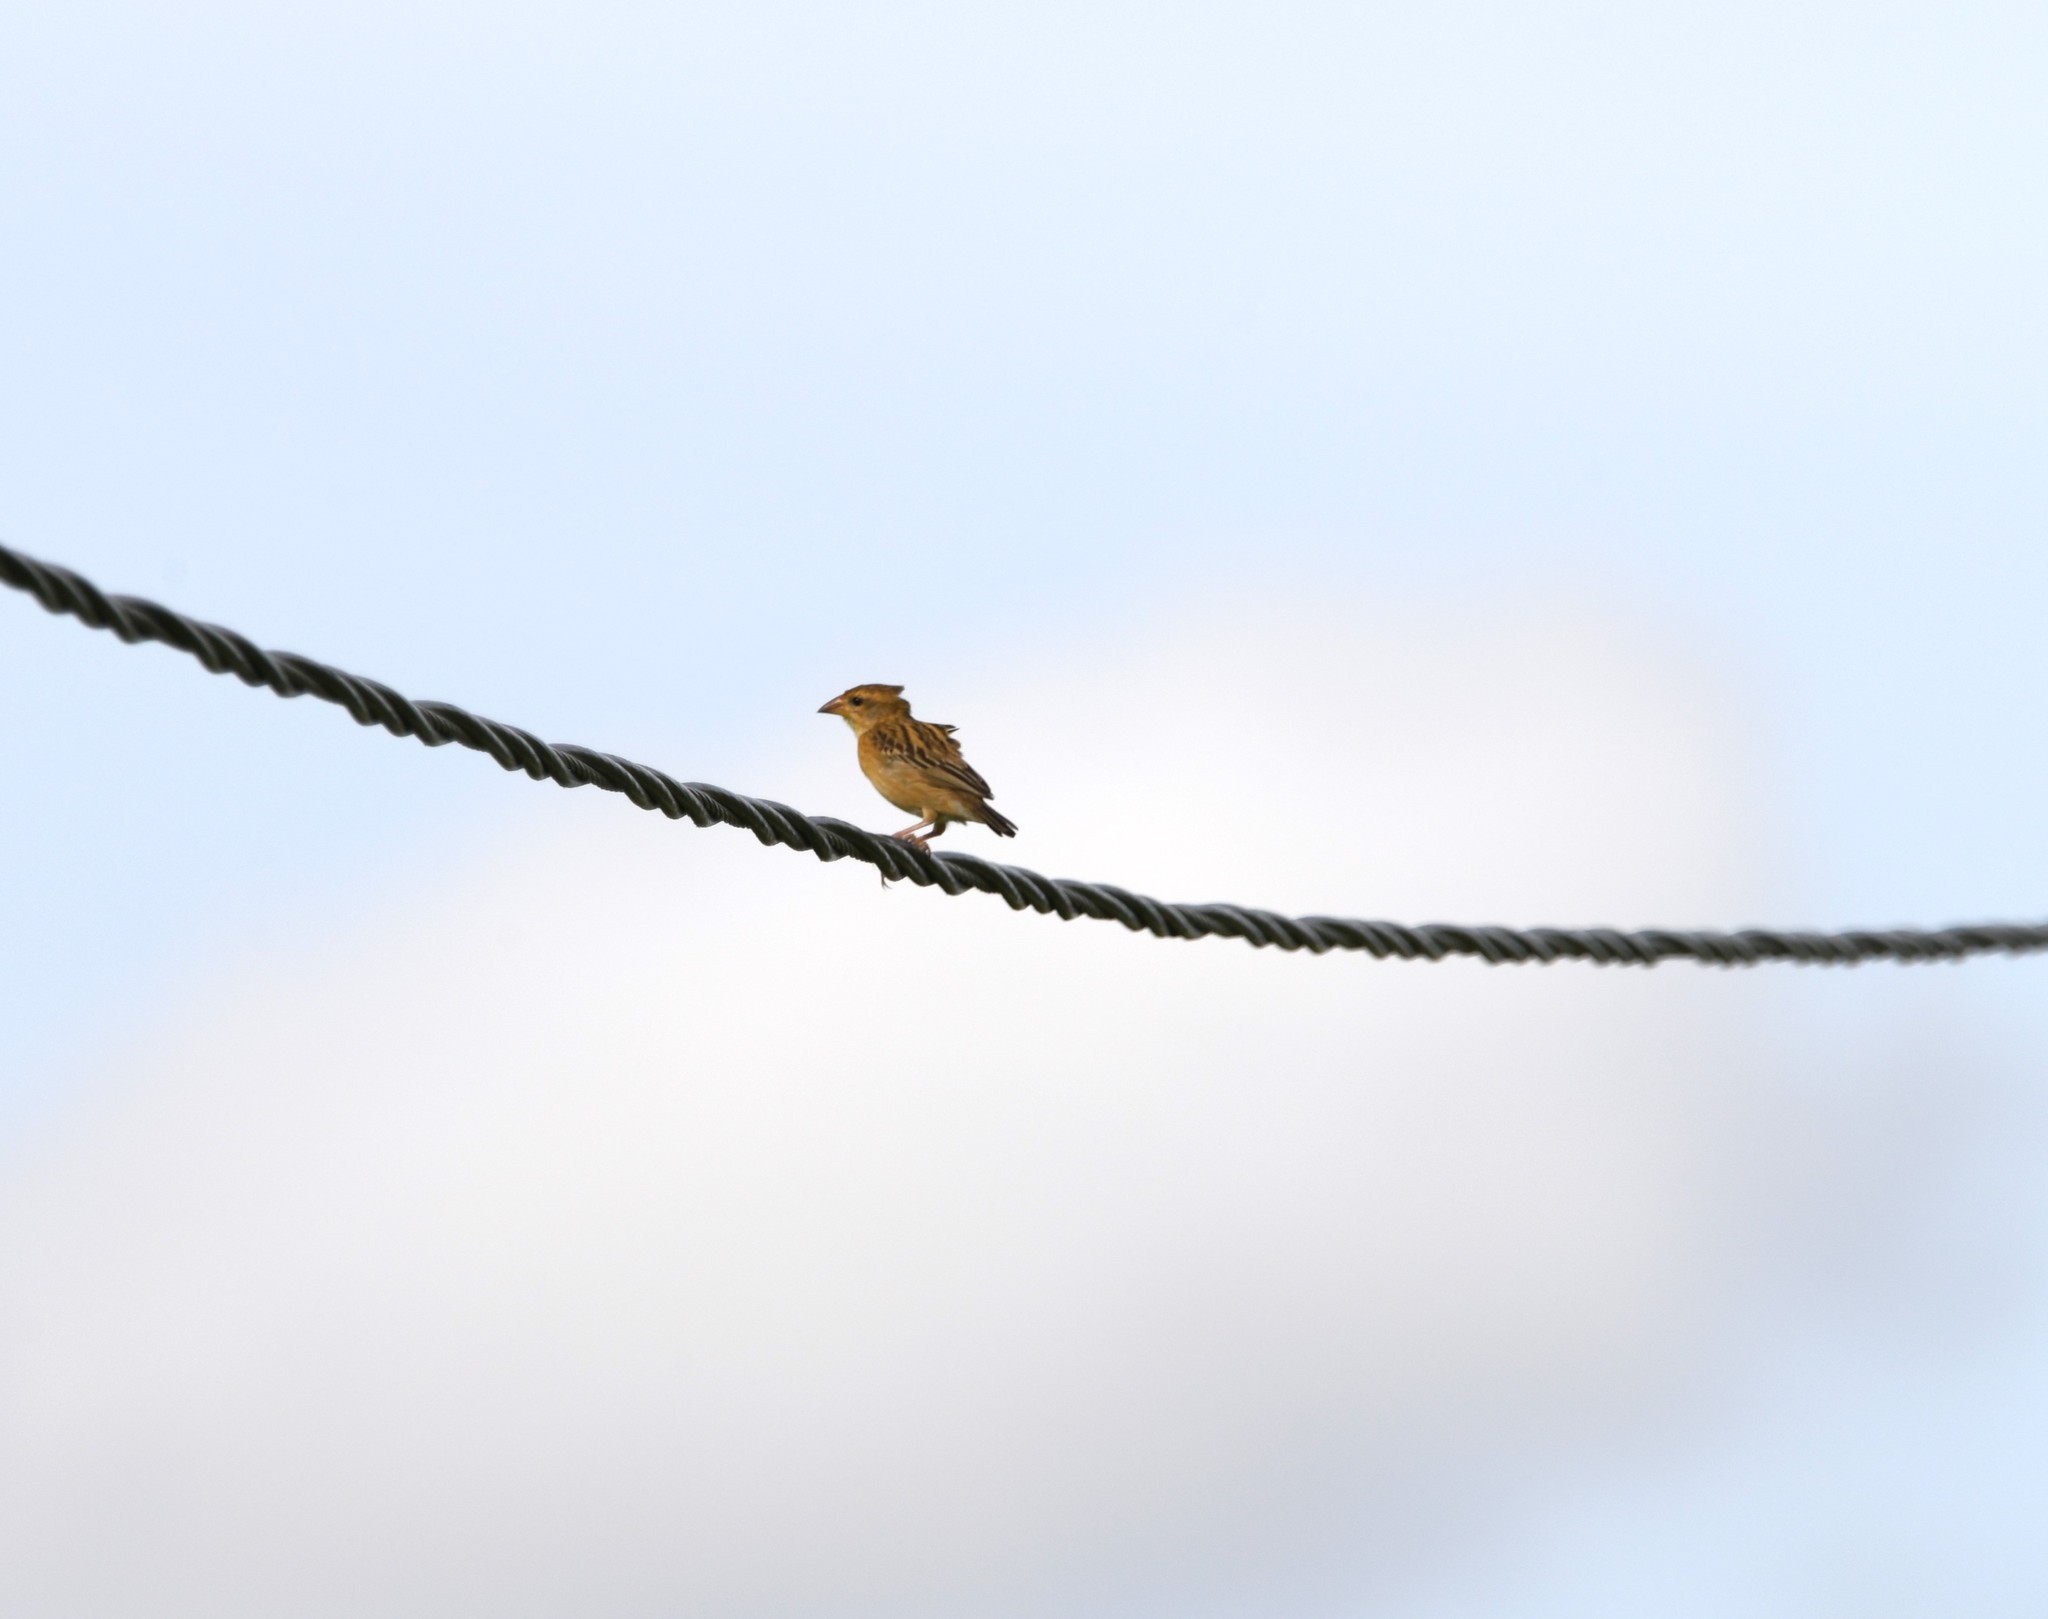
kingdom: Animalia
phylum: Chordata
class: Aves
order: Passeriformes
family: Ploceidae
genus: Ploceus
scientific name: Ploceus philippinus
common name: Baya weaver
